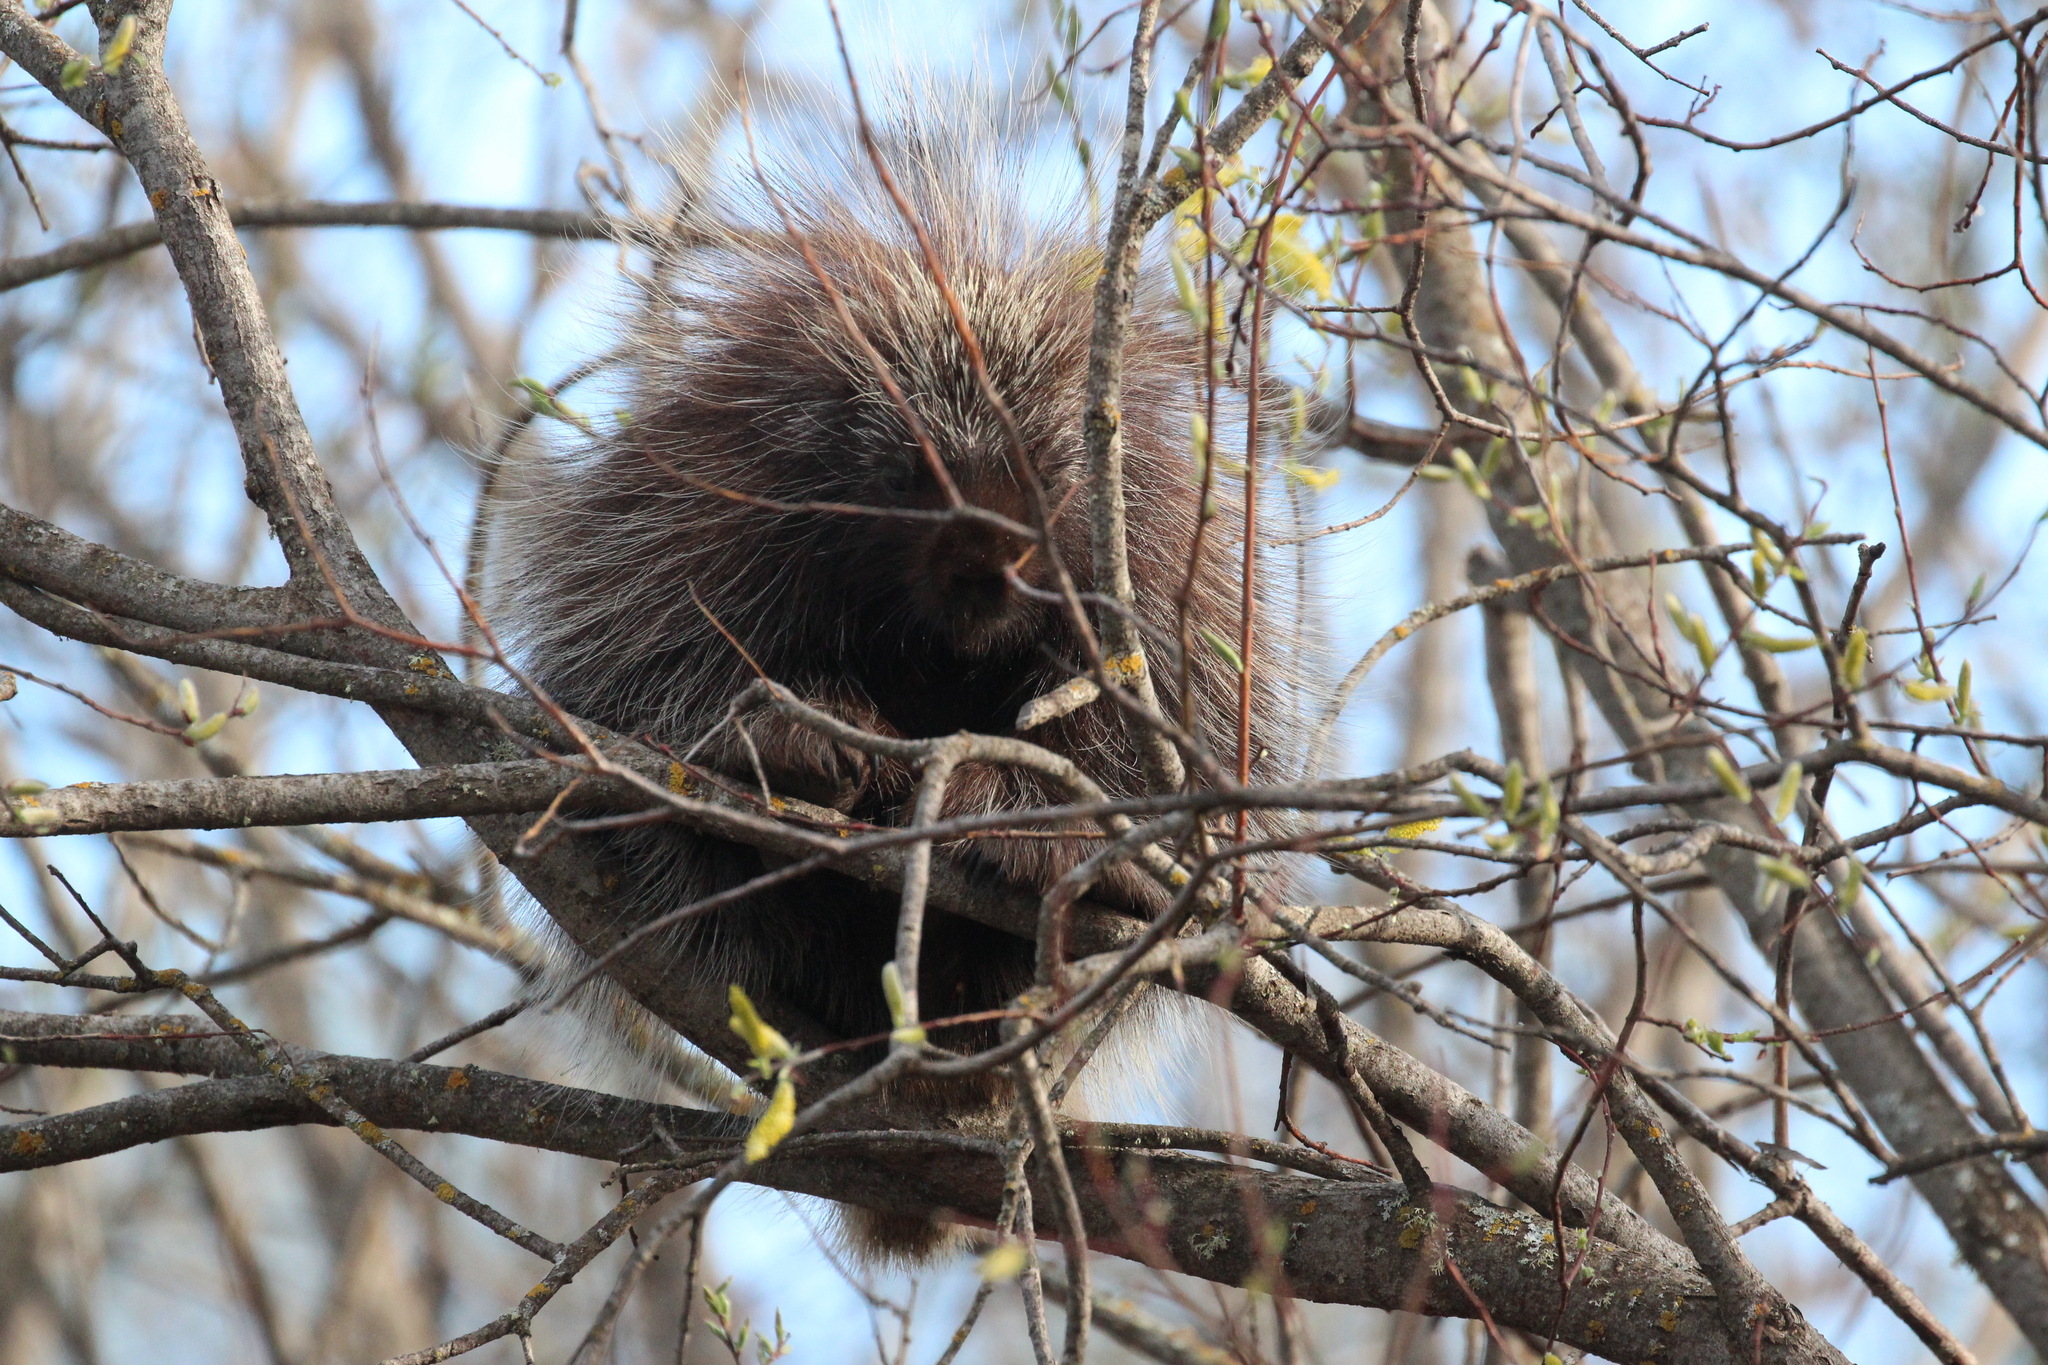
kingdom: Animalia
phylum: Chordata
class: Mammalia
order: Rodentia
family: Erethizontidae
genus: Erethizon
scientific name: Erethizon dorsatus
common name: North american porcupine
